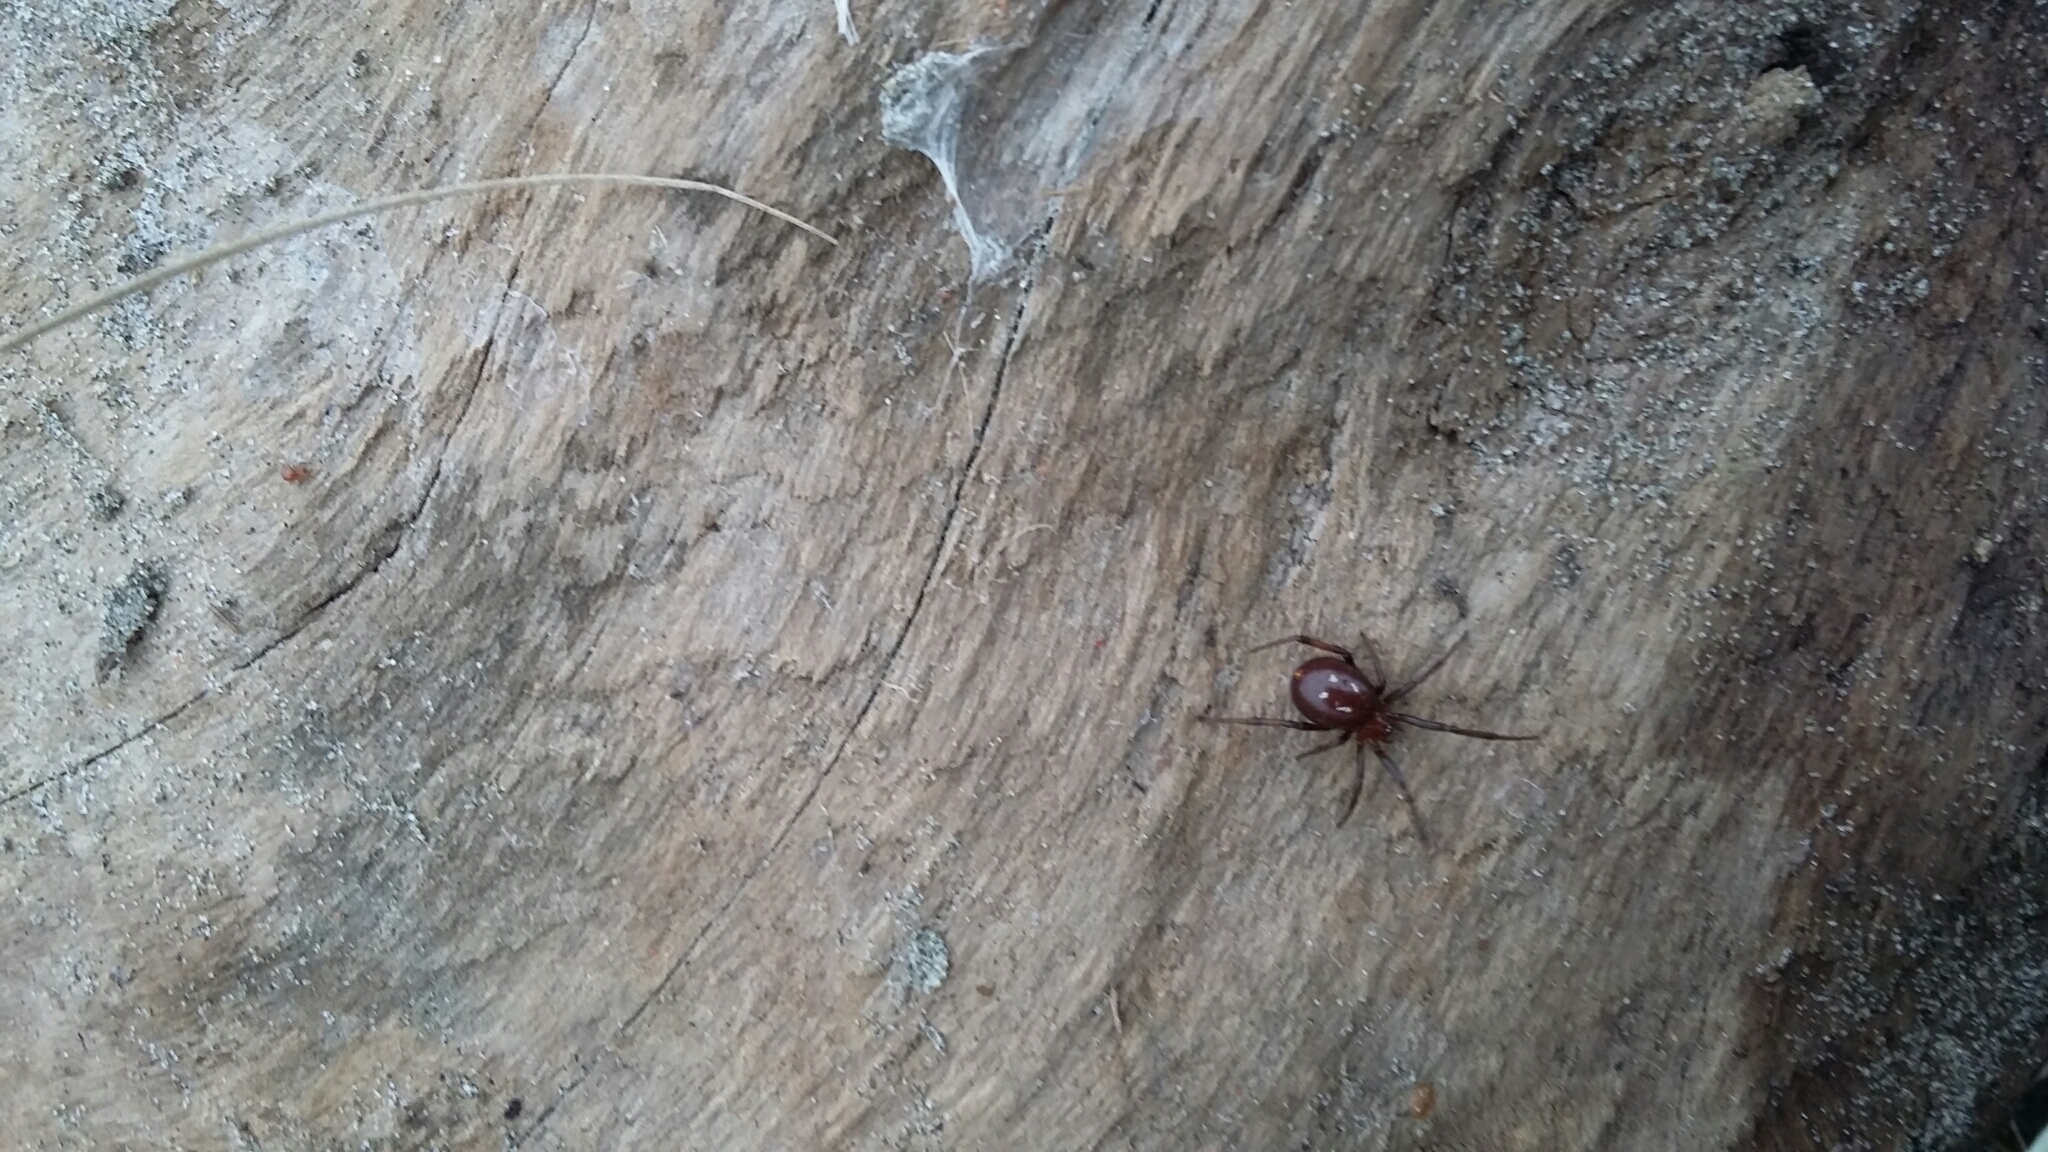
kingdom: Animalia
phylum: Arthropoda
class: Arachnida
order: Araneae
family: Theridiidae
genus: Steatoda
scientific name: Steatoda capensis
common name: Cobweb weaver
